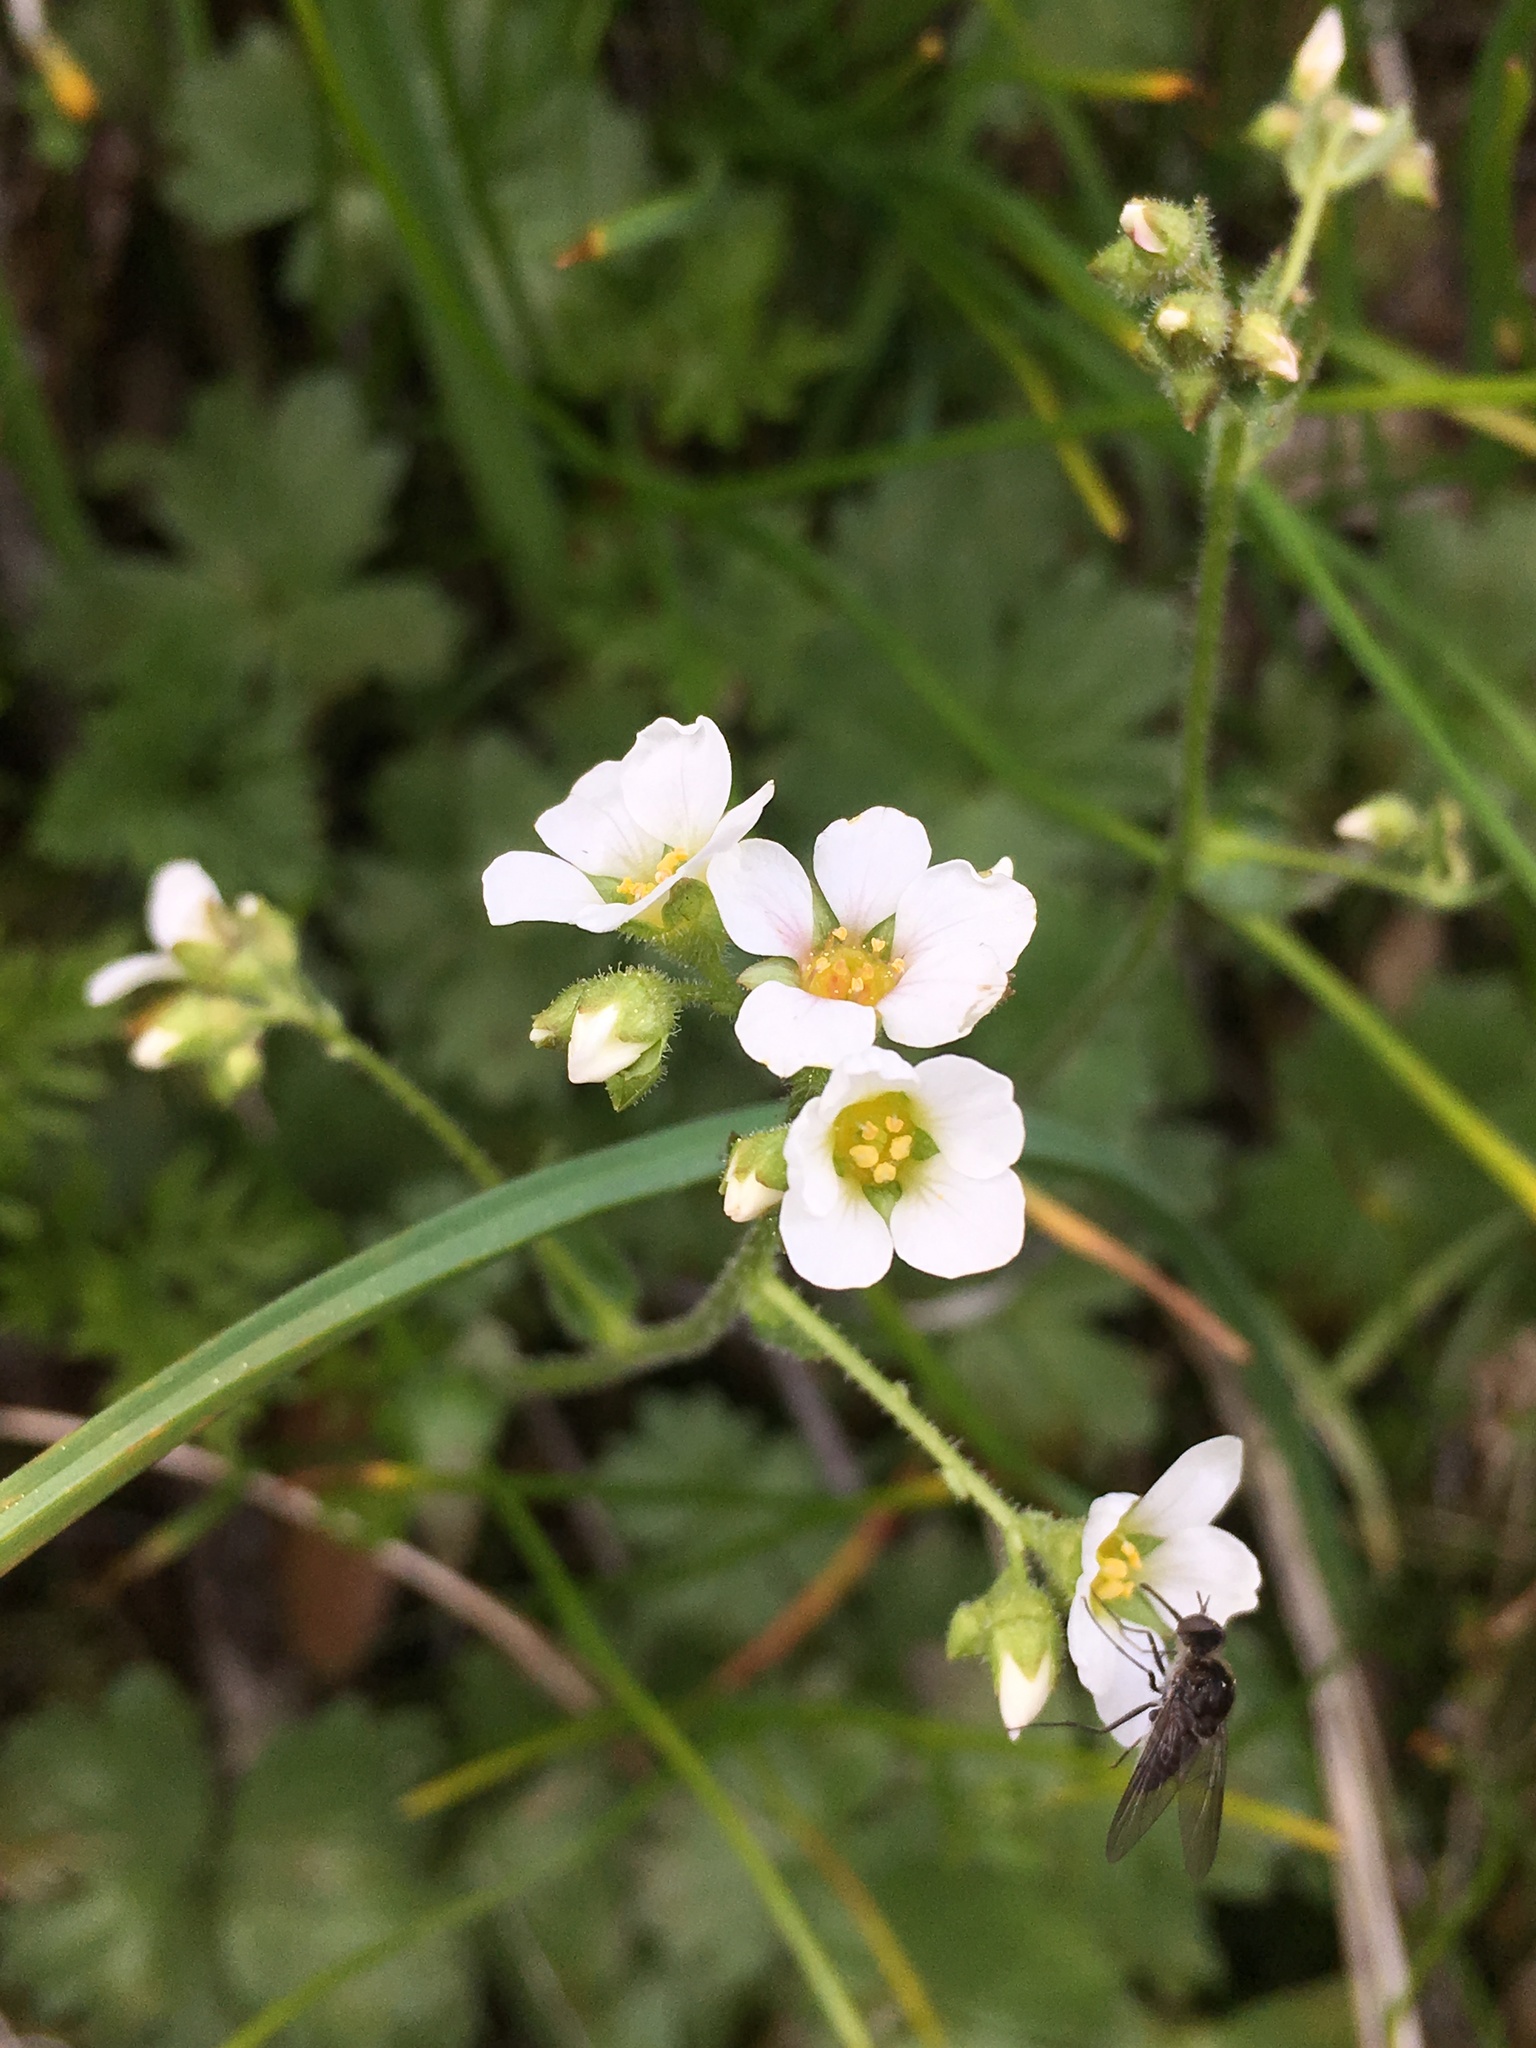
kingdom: Plantae
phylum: Tracheophyta
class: Magnoliopsida
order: Saxifragales
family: Saxifragaceae
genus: Boykinia
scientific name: Boykinia major
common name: Large boykinia
